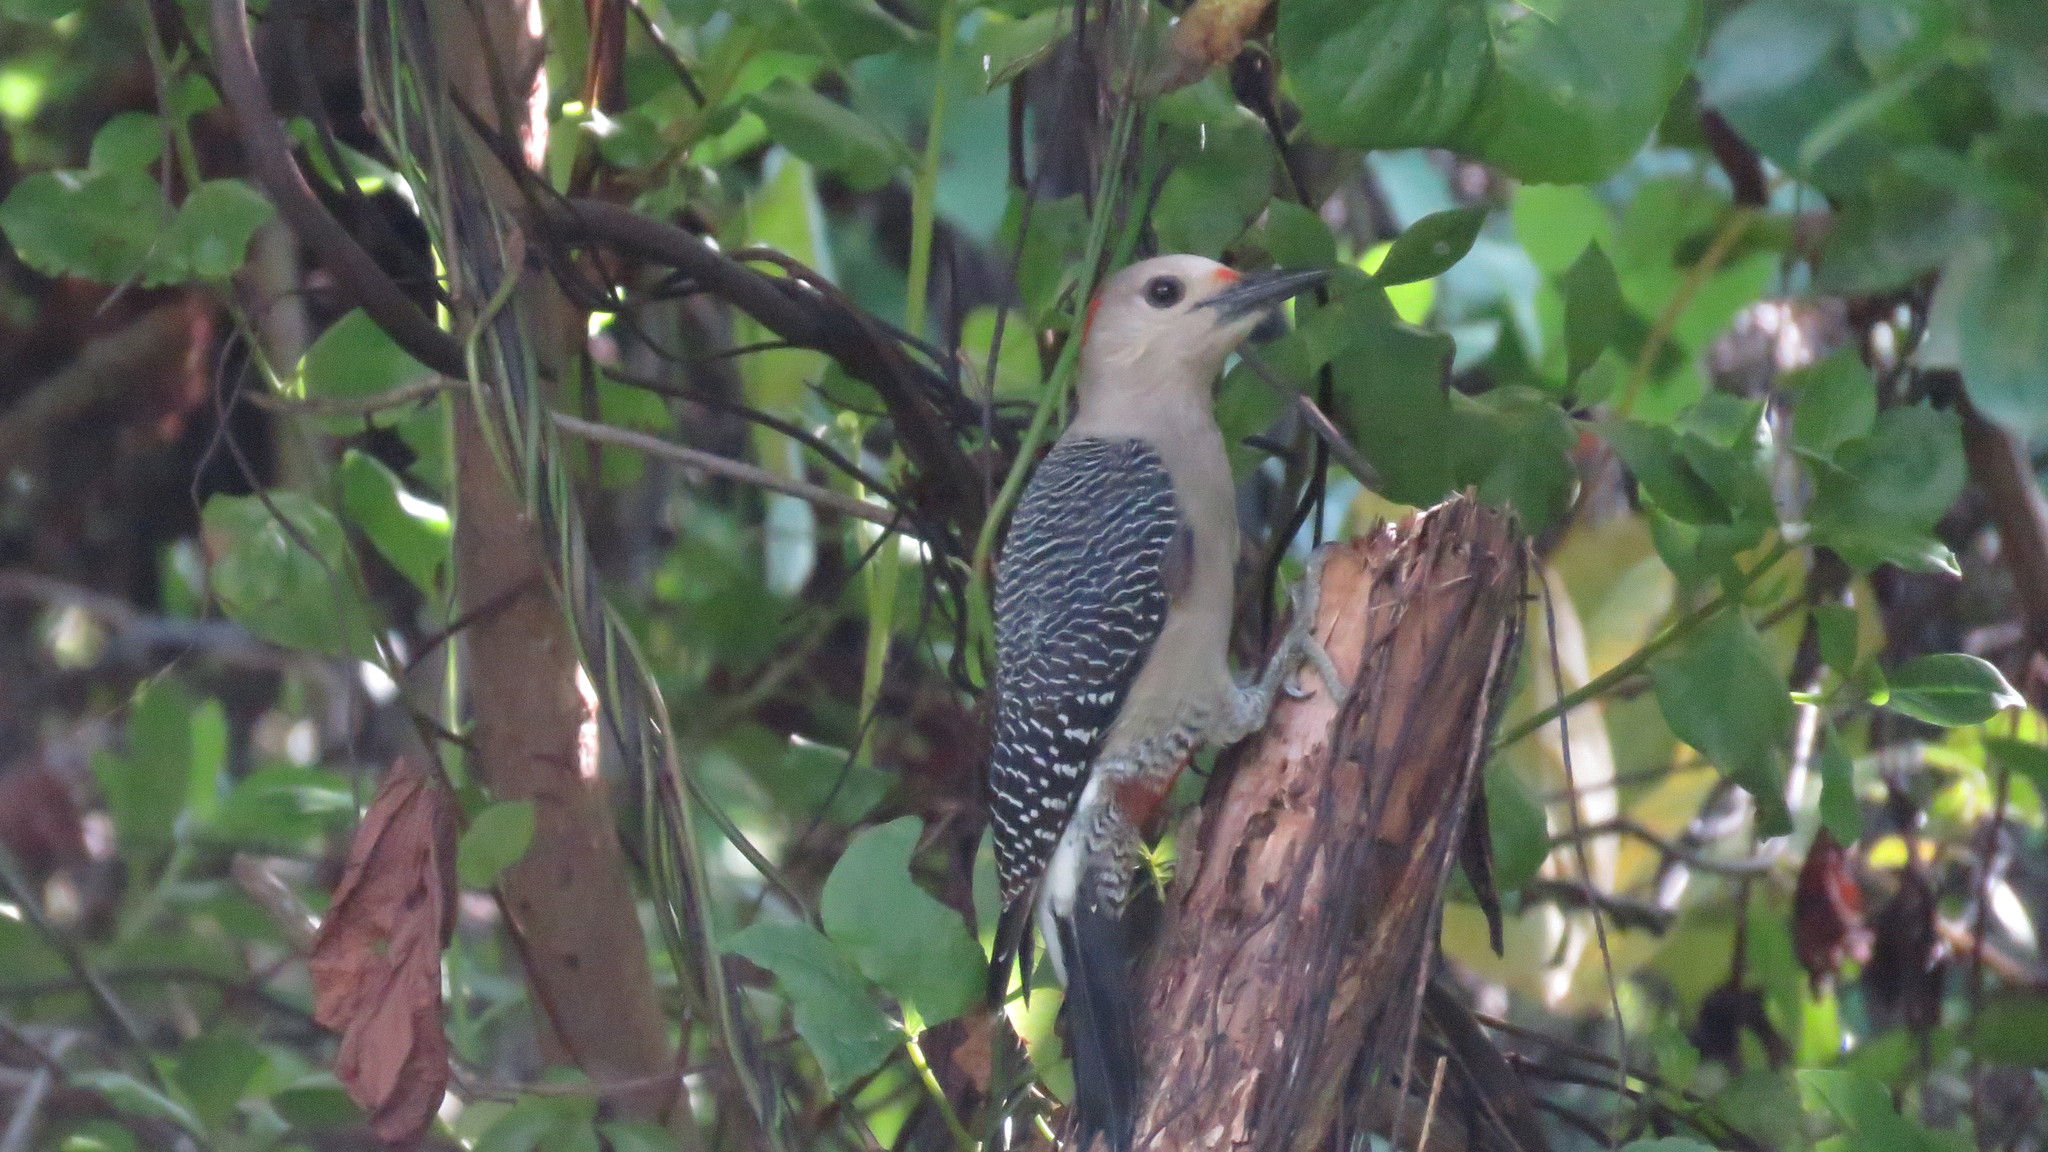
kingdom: Animalia
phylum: Chordata
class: Aves
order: Piciformes
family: Picidae
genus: Melanerpes
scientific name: Melanerpes aurifrons
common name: Golden-fronted woodpecker
